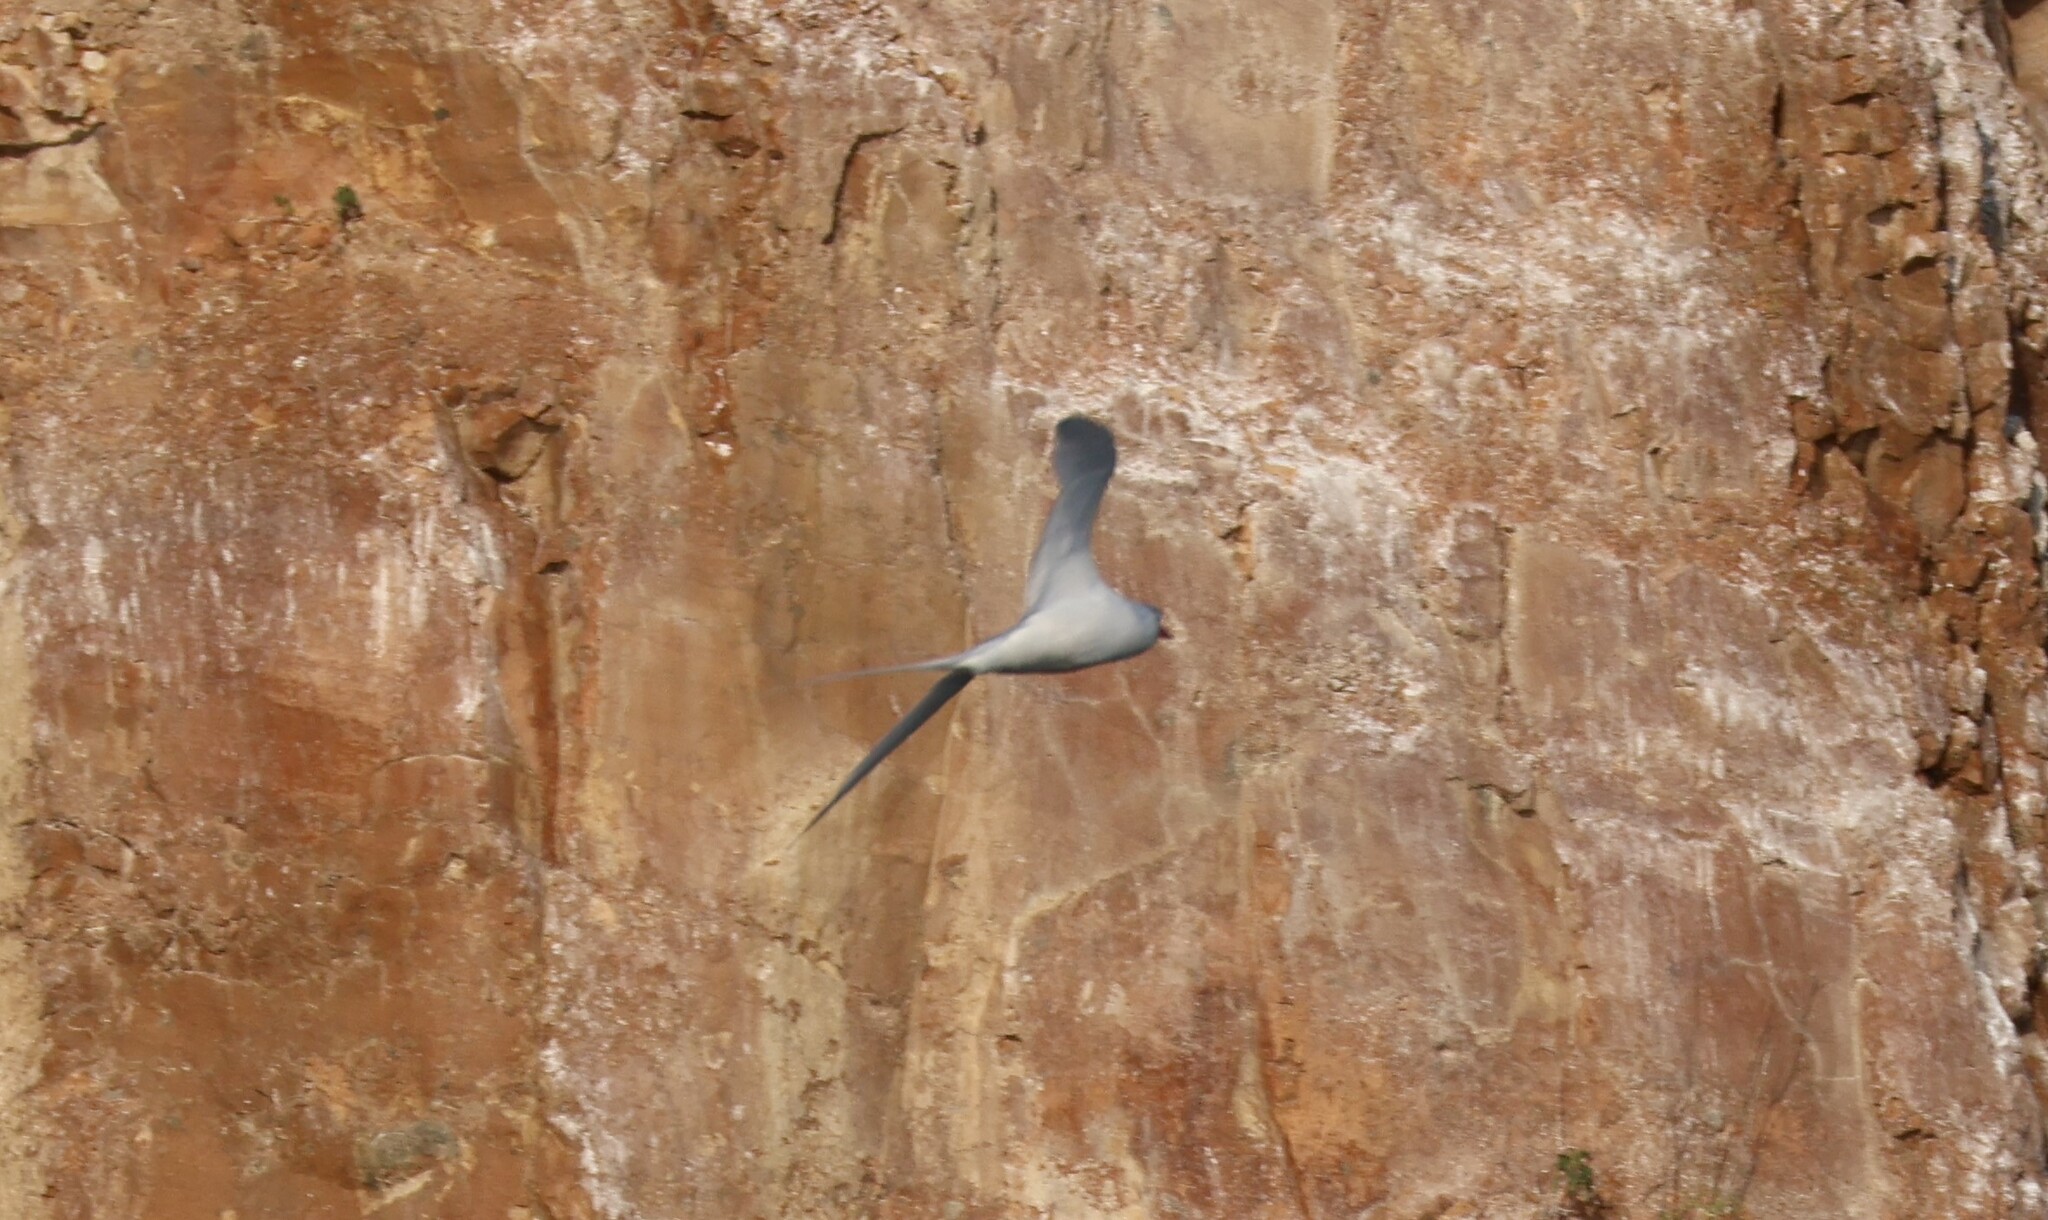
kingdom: Animalia
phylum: Chordata
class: Aves
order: Phaethontiformes
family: Phaethontidae
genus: Phaethon
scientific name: Phaethon aethereus
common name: Red-billed tropicbird
